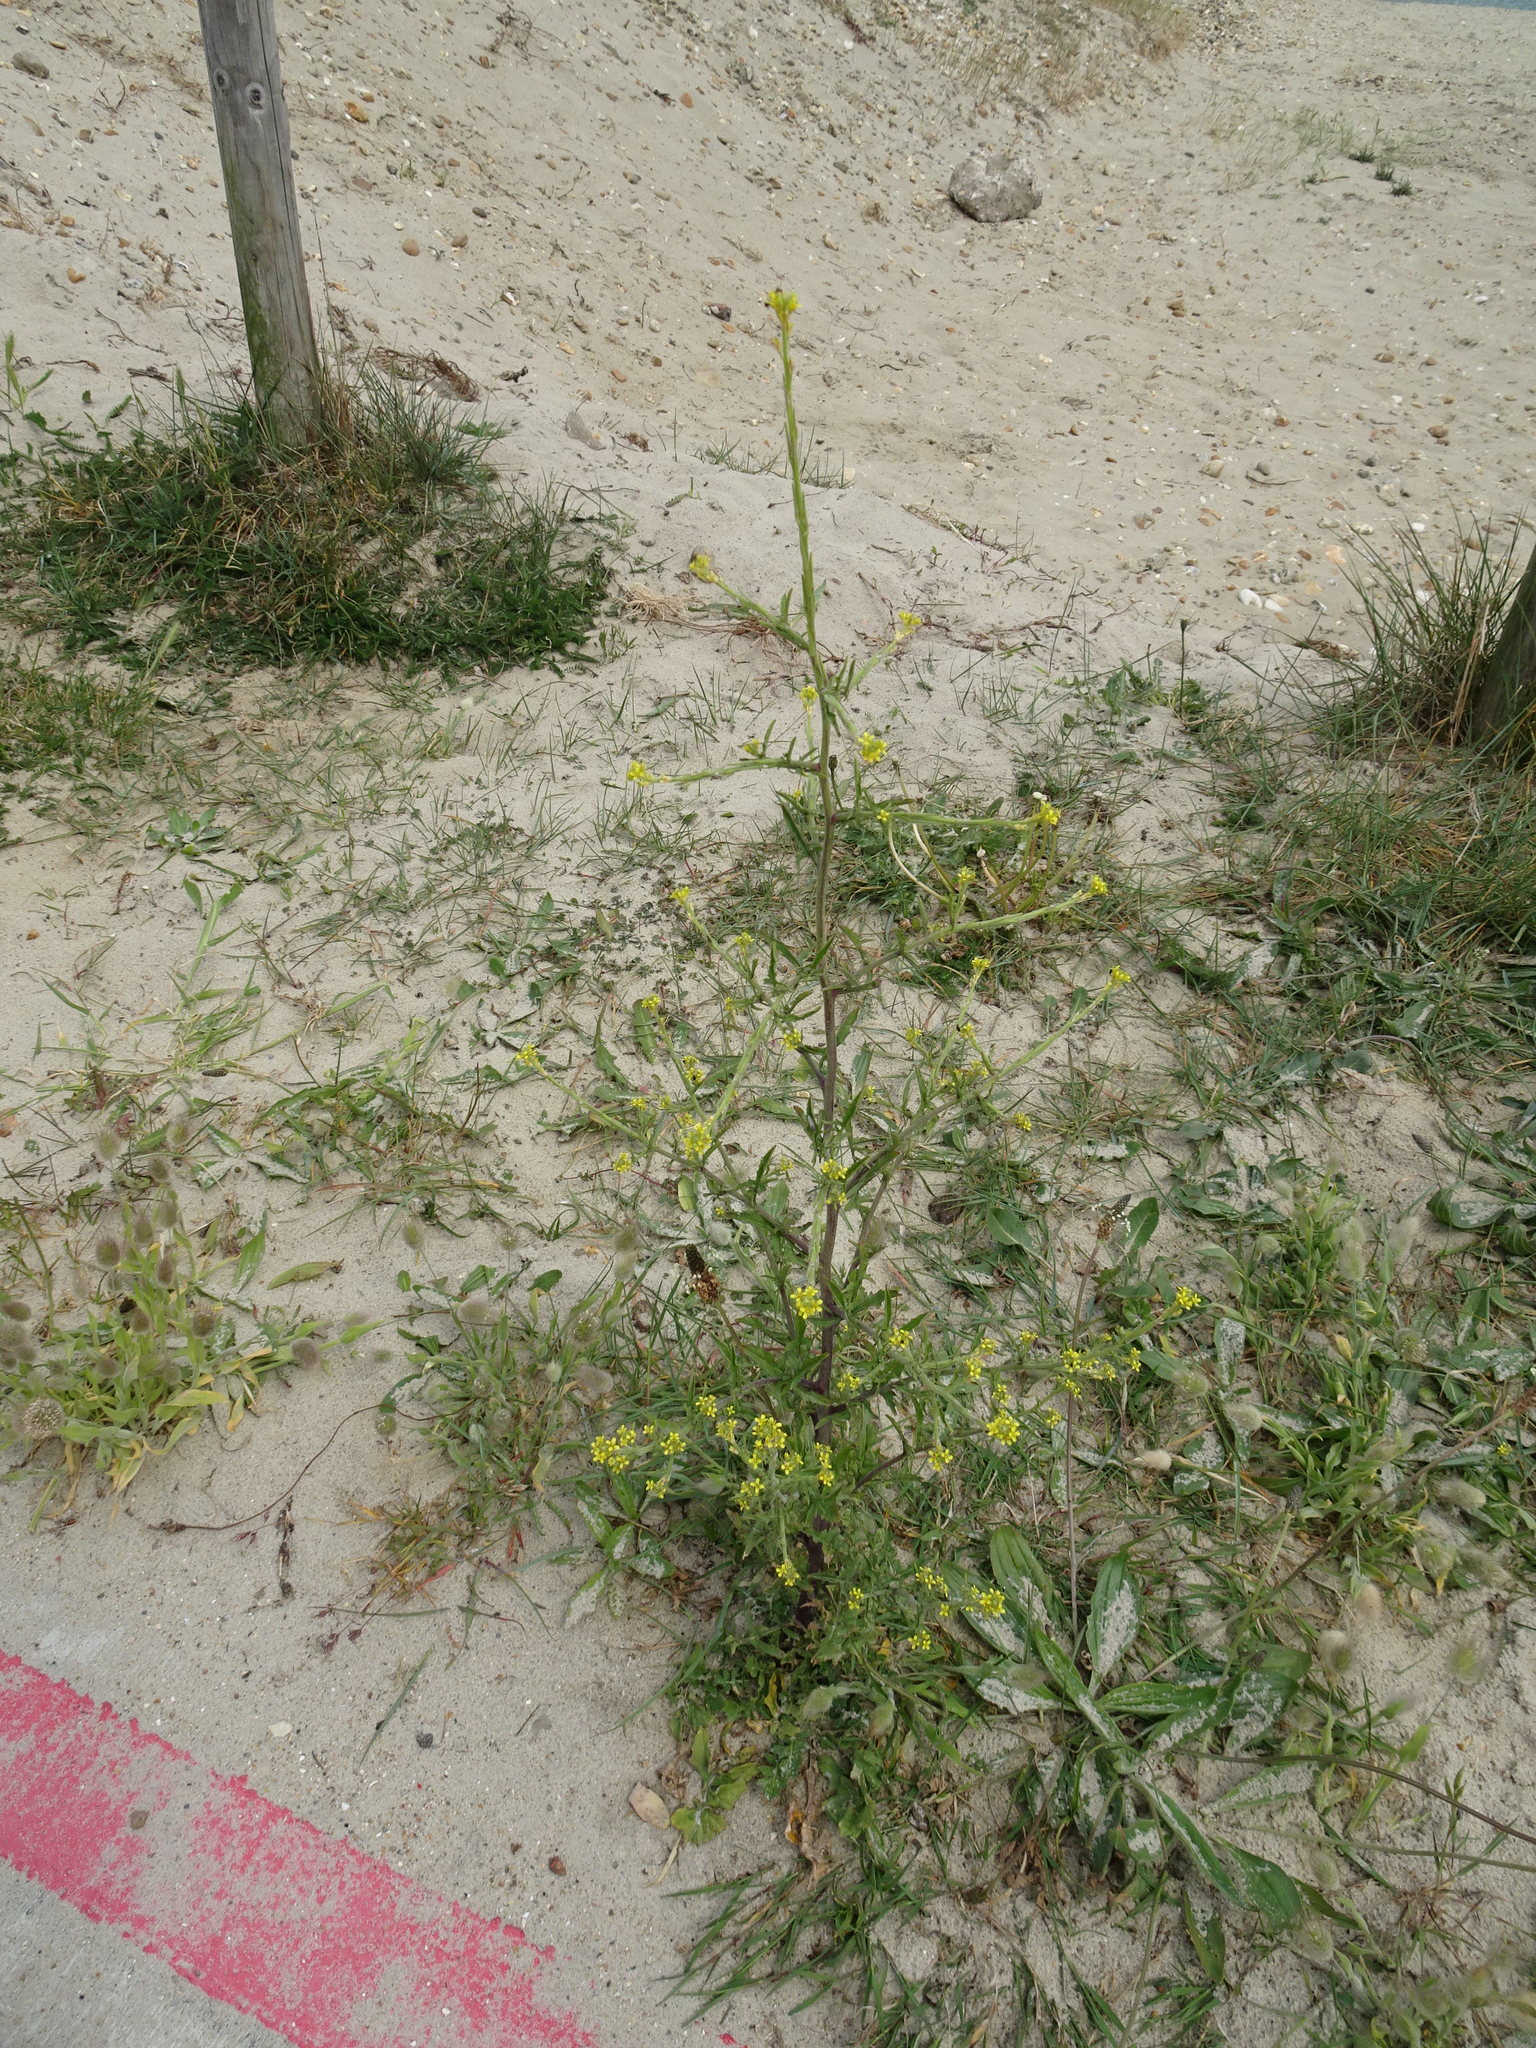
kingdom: Plantae
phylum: Tracheophyta
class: Magnoliopsida
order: Brassicales
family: Brassicaceae
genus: Sisymbrium
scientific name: Sisymbrium officinale
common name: Hedge mustard
